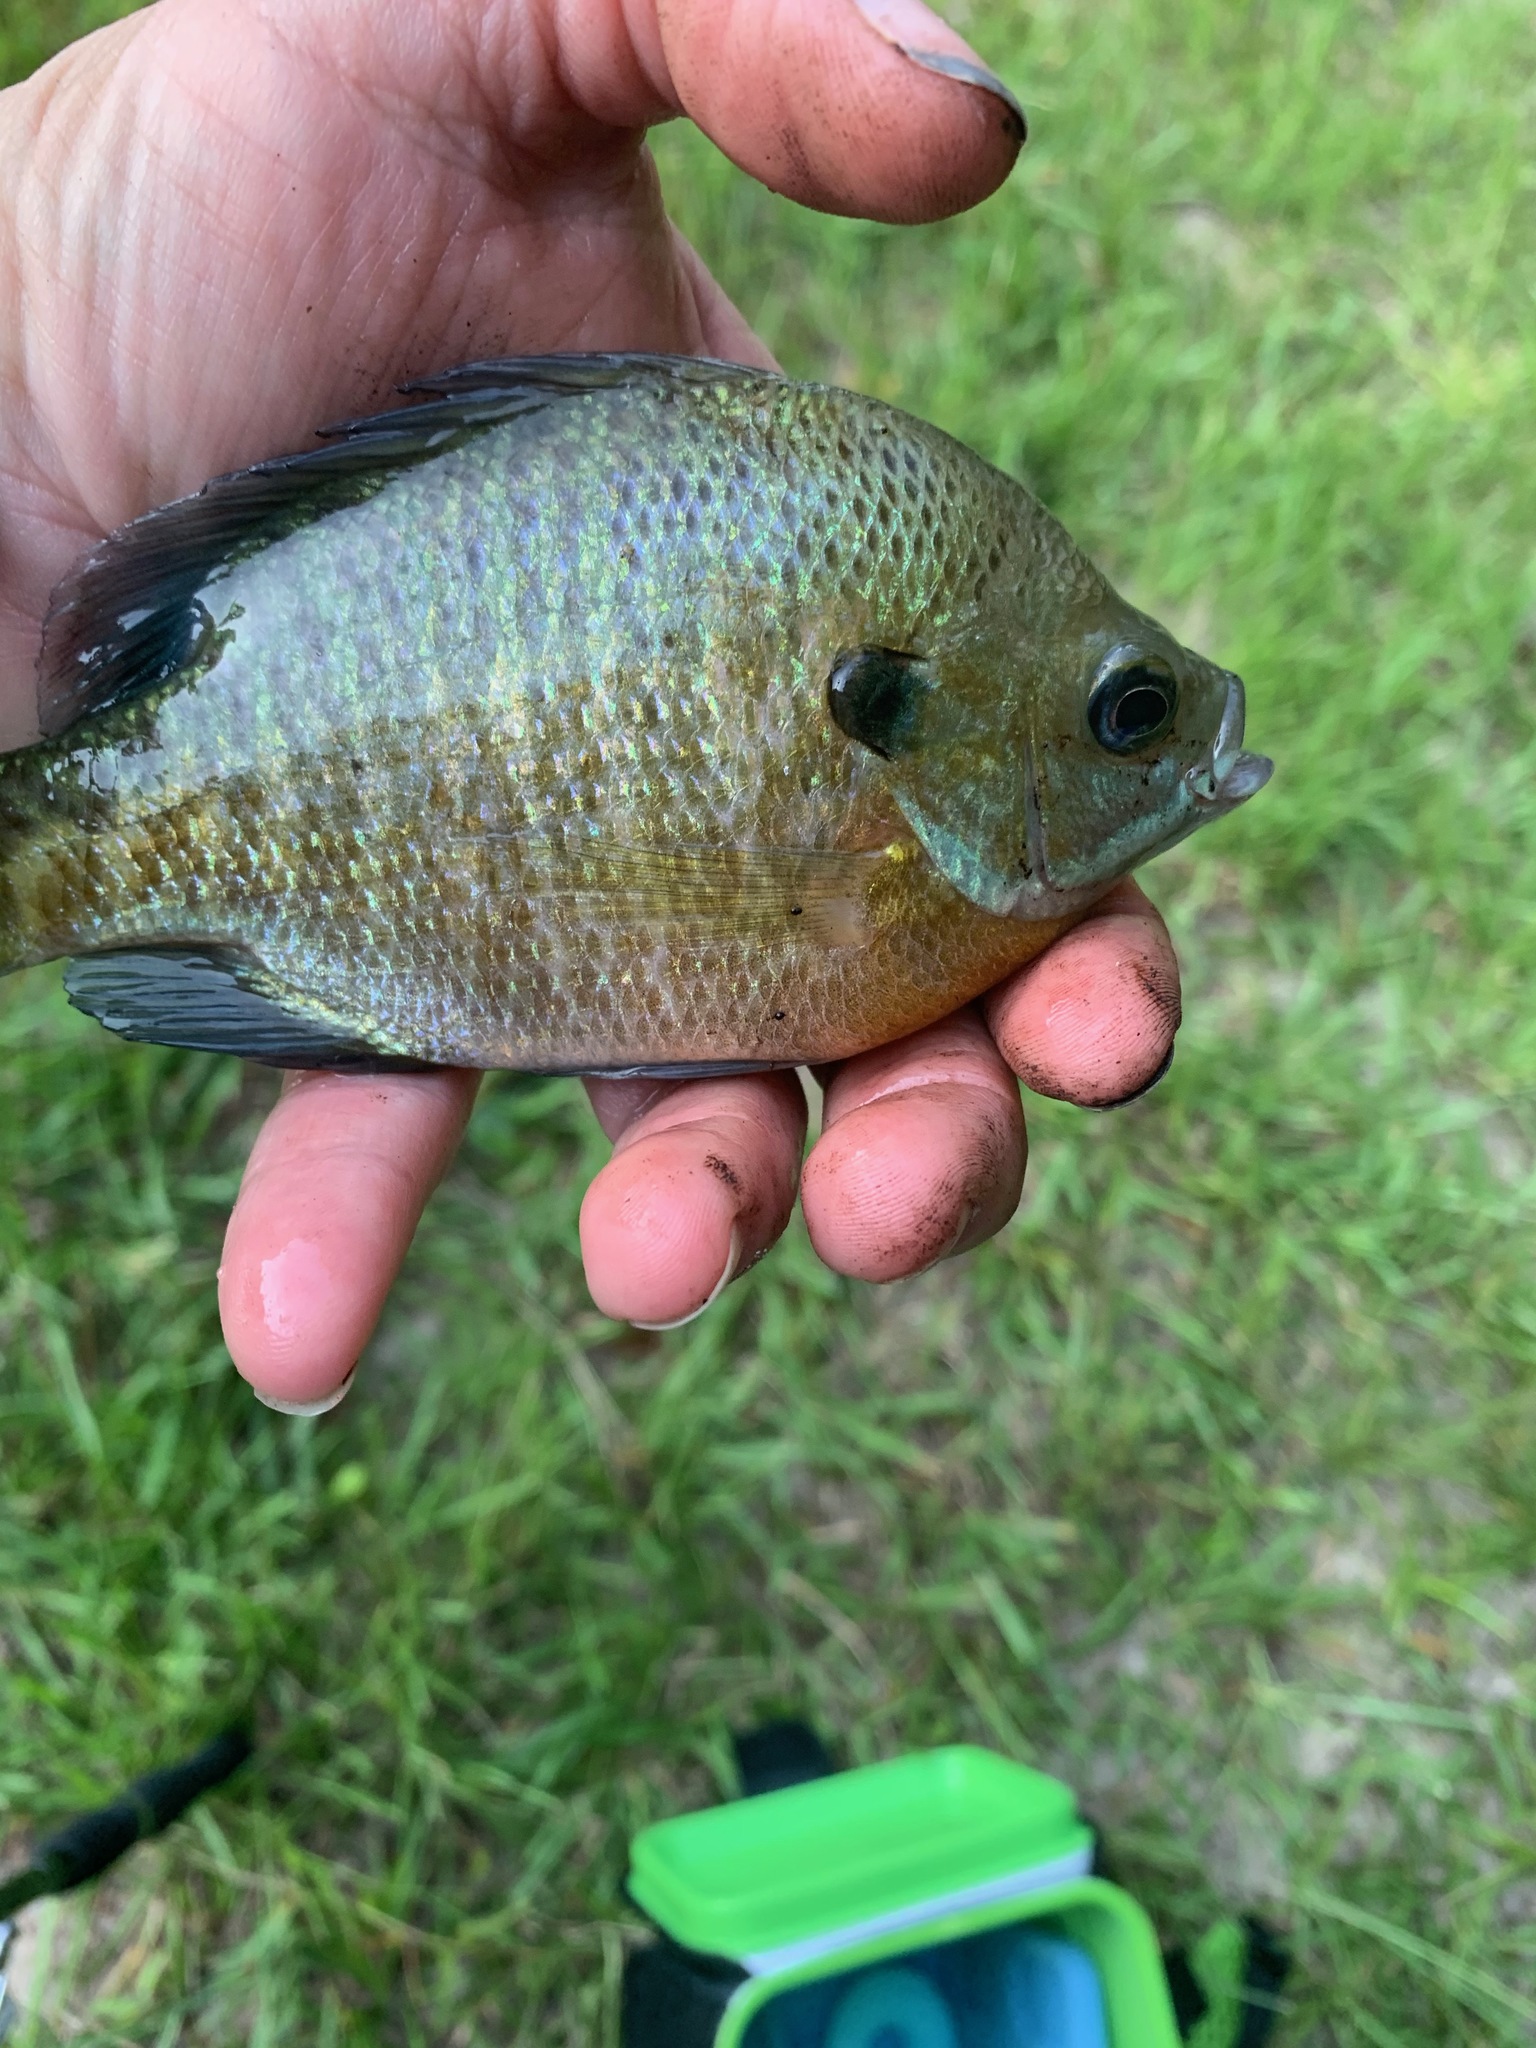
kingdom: Animalia
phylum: Chordata
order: Perciformes
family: Centrarchidae
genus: Lepomis
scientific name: Lepomis macrochirus
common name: Bluegill
